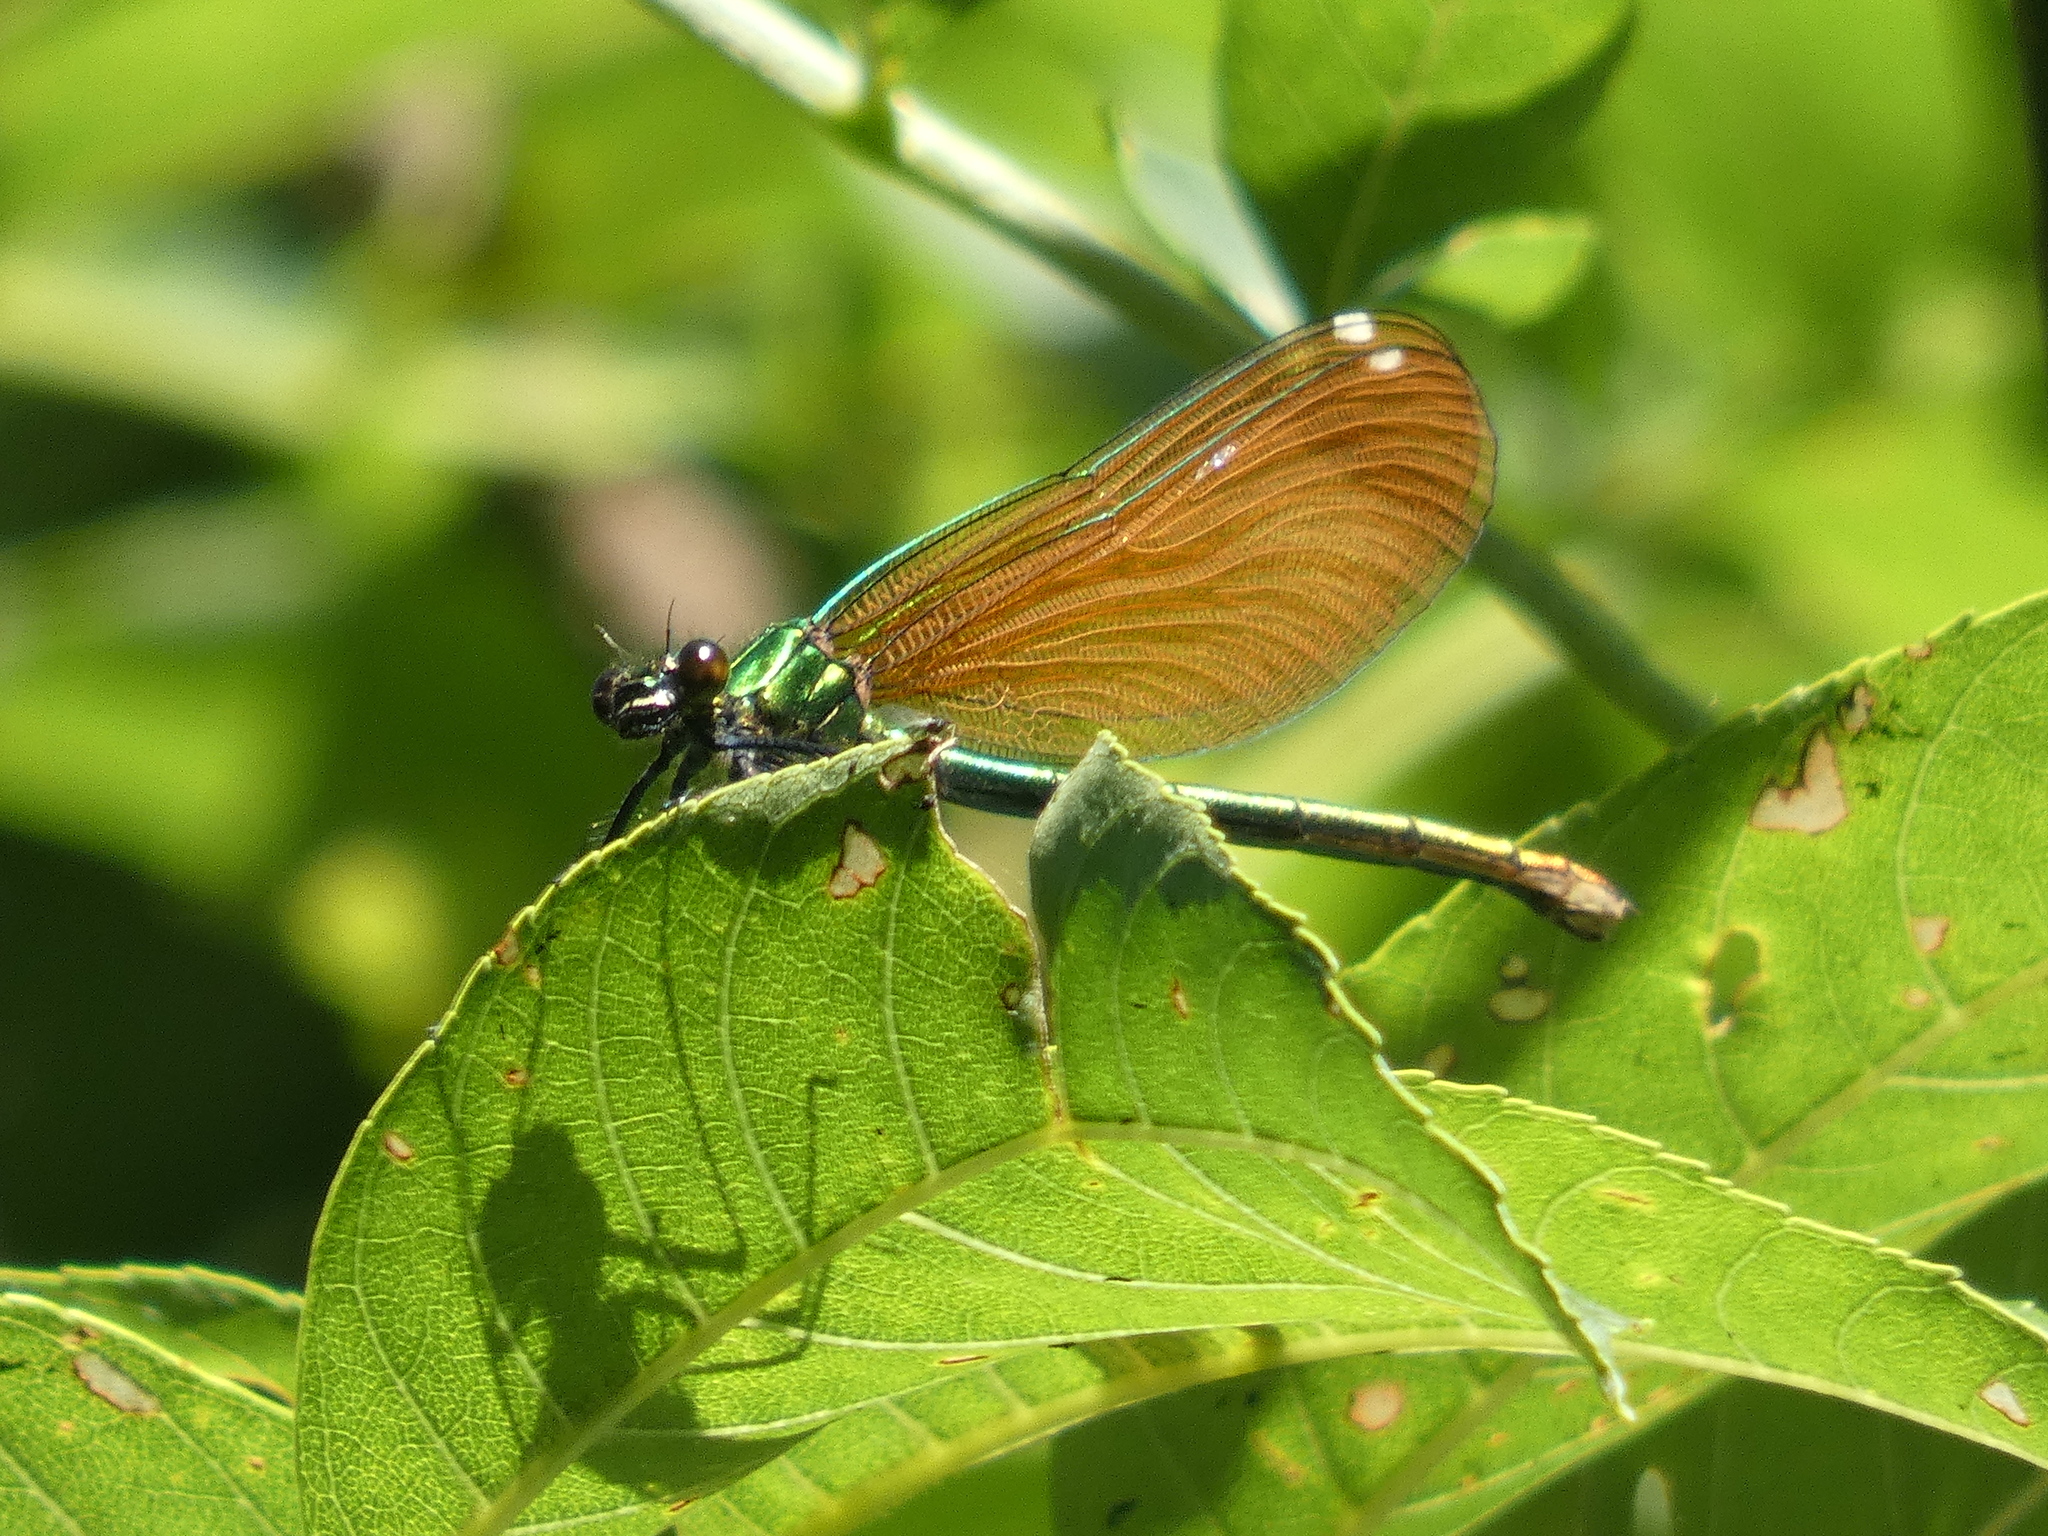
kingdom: Animalia
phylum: Arthropoda
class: Insecta
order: Odonata
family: Calopterygidae
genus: Calopteryx
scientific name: Calopteryx virgo
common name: Beautiful demoiselle
